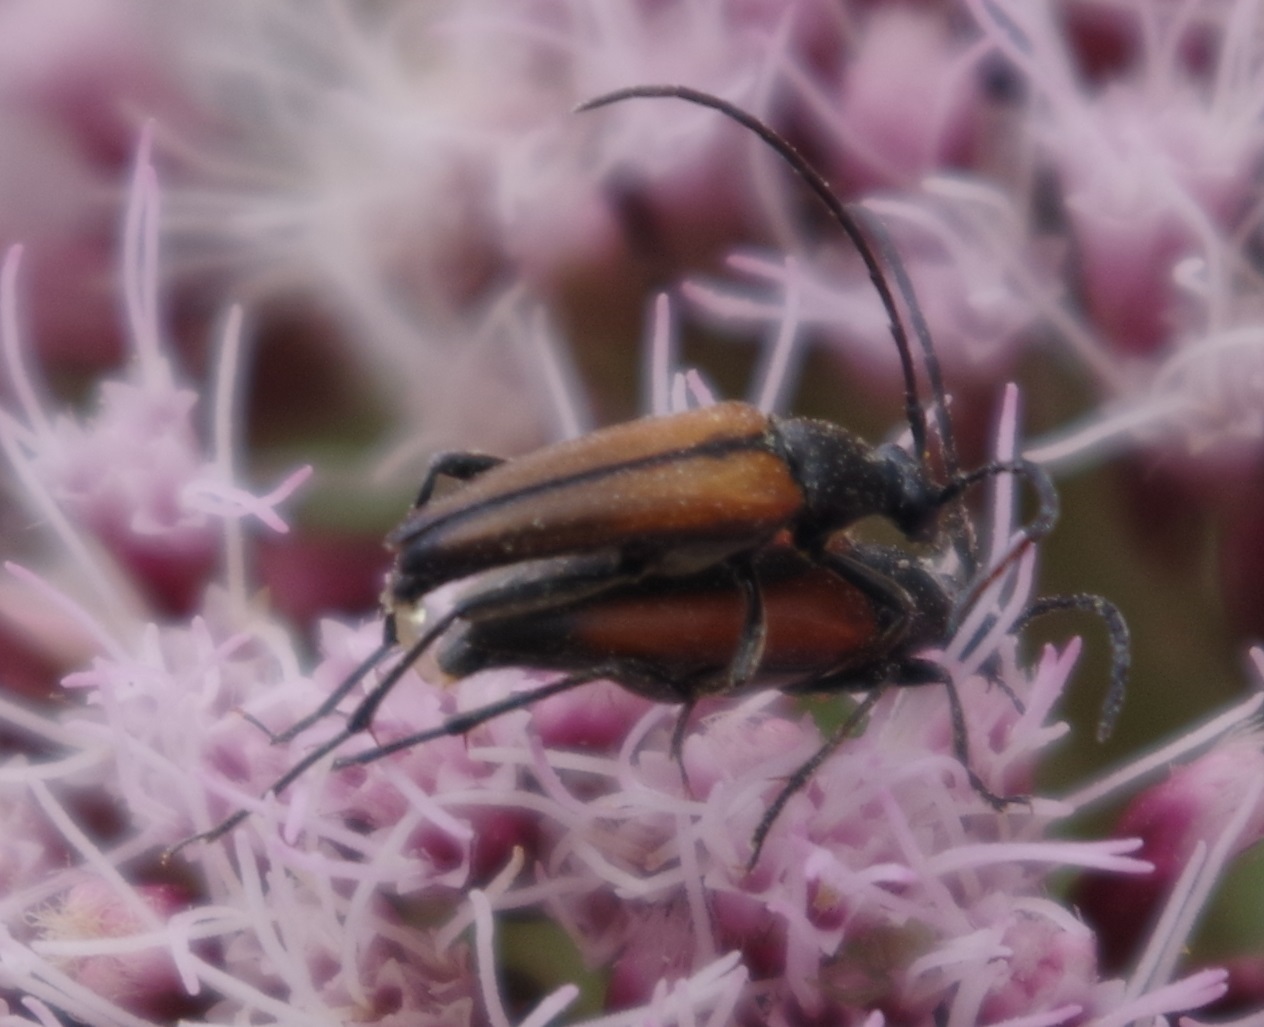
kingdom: Animalia
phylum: Arthropoda
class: Insecta
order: Coleoptera
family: Cerambycidae
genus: Stenurella
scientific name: Stenurella melanura
